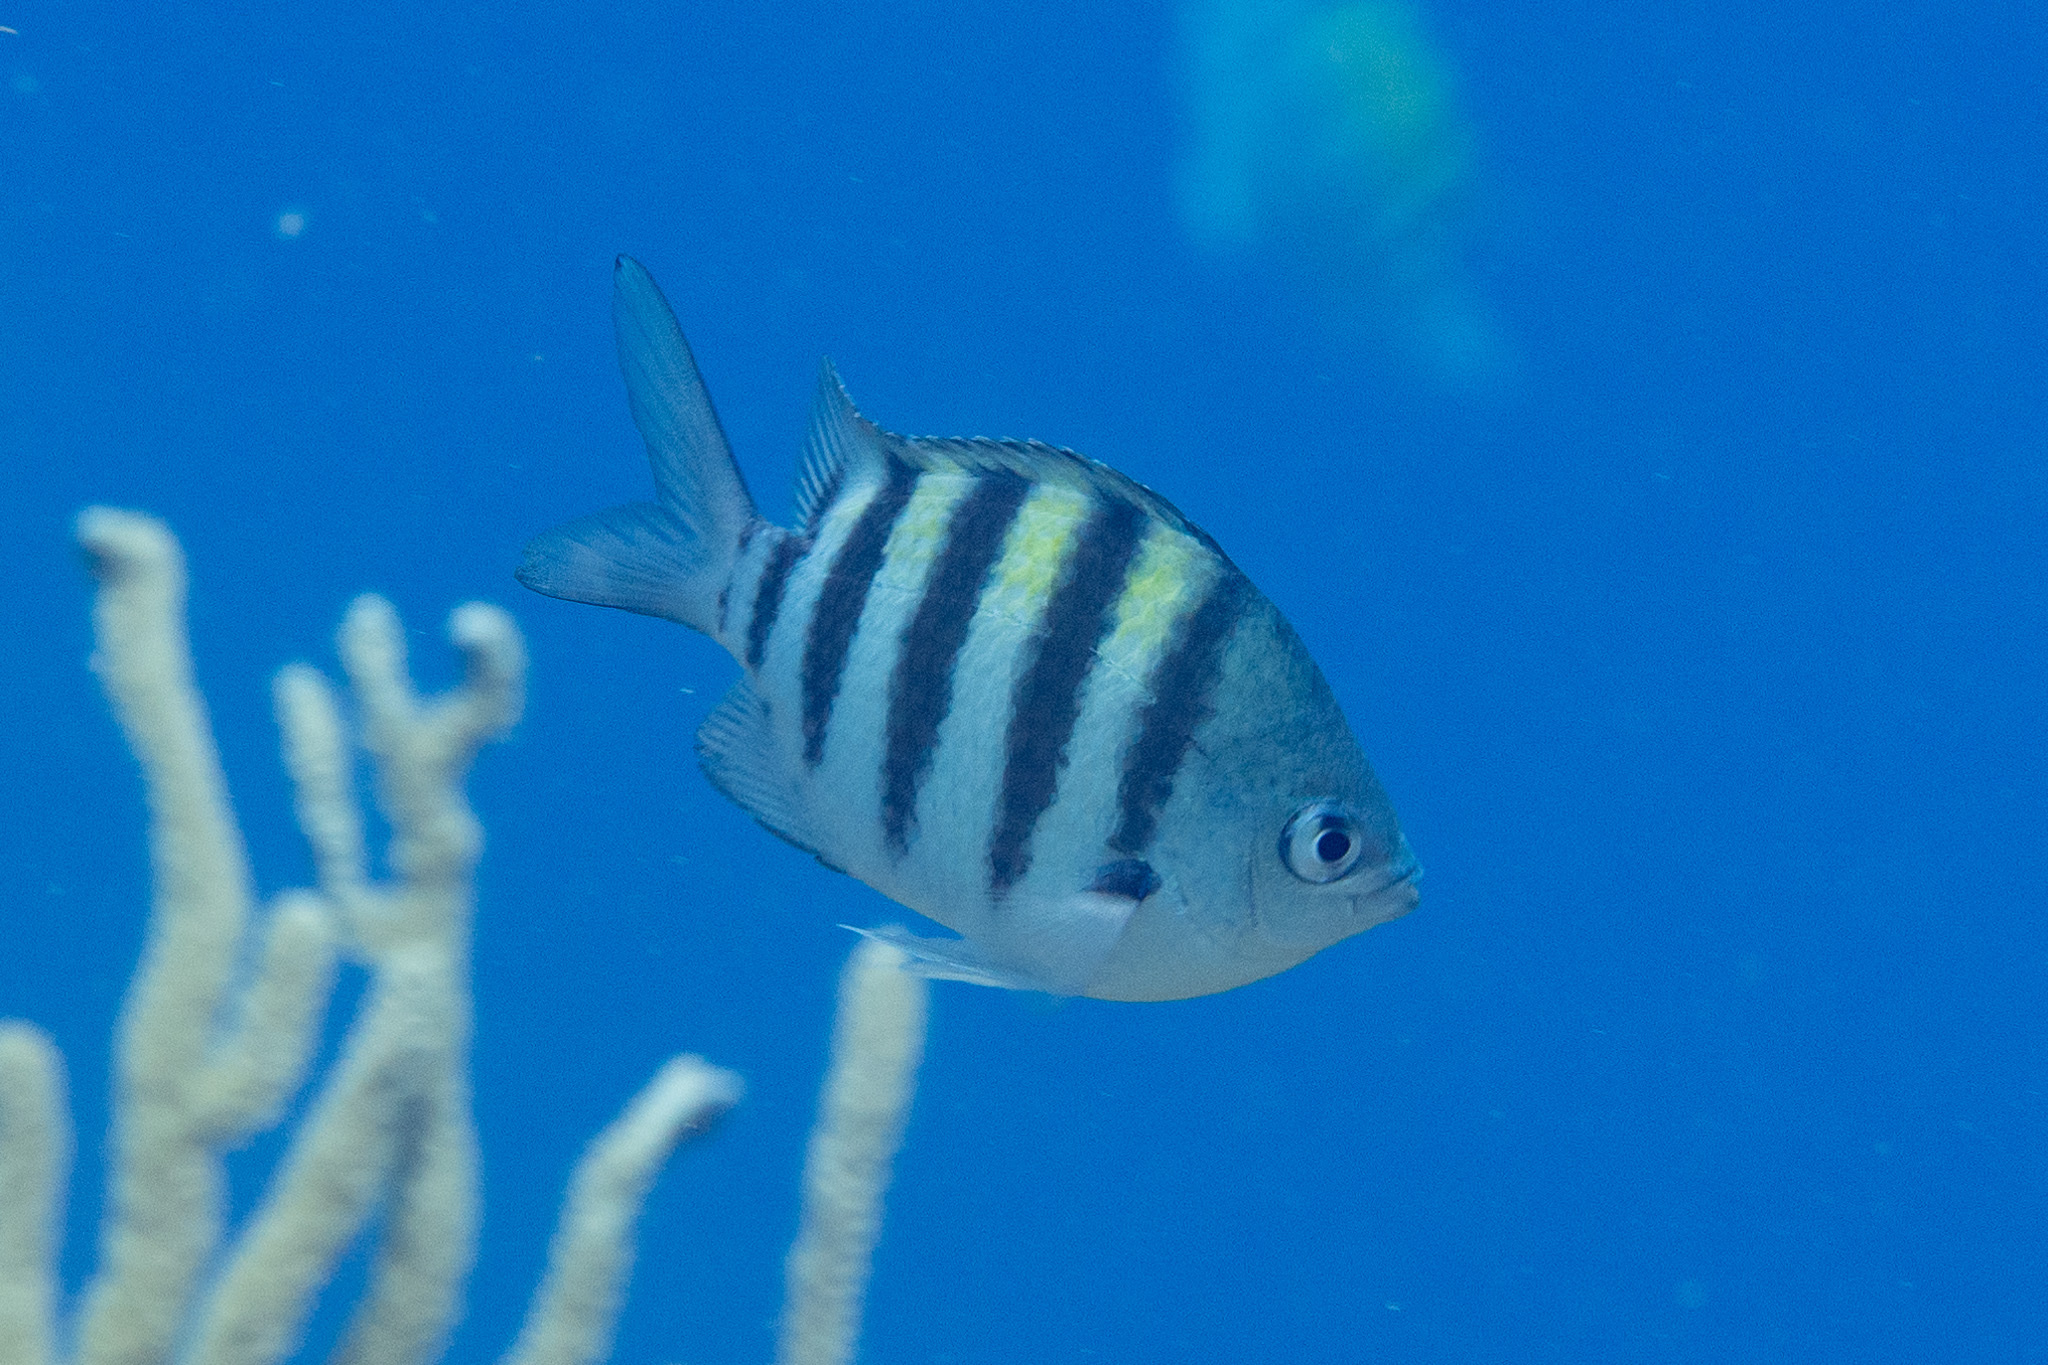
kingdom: Animalia
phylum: Chordata
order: Perciformes
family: Pomacentridae
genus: Abudefduf
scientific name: Abudefduf saxatilis
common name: Sergeant major
